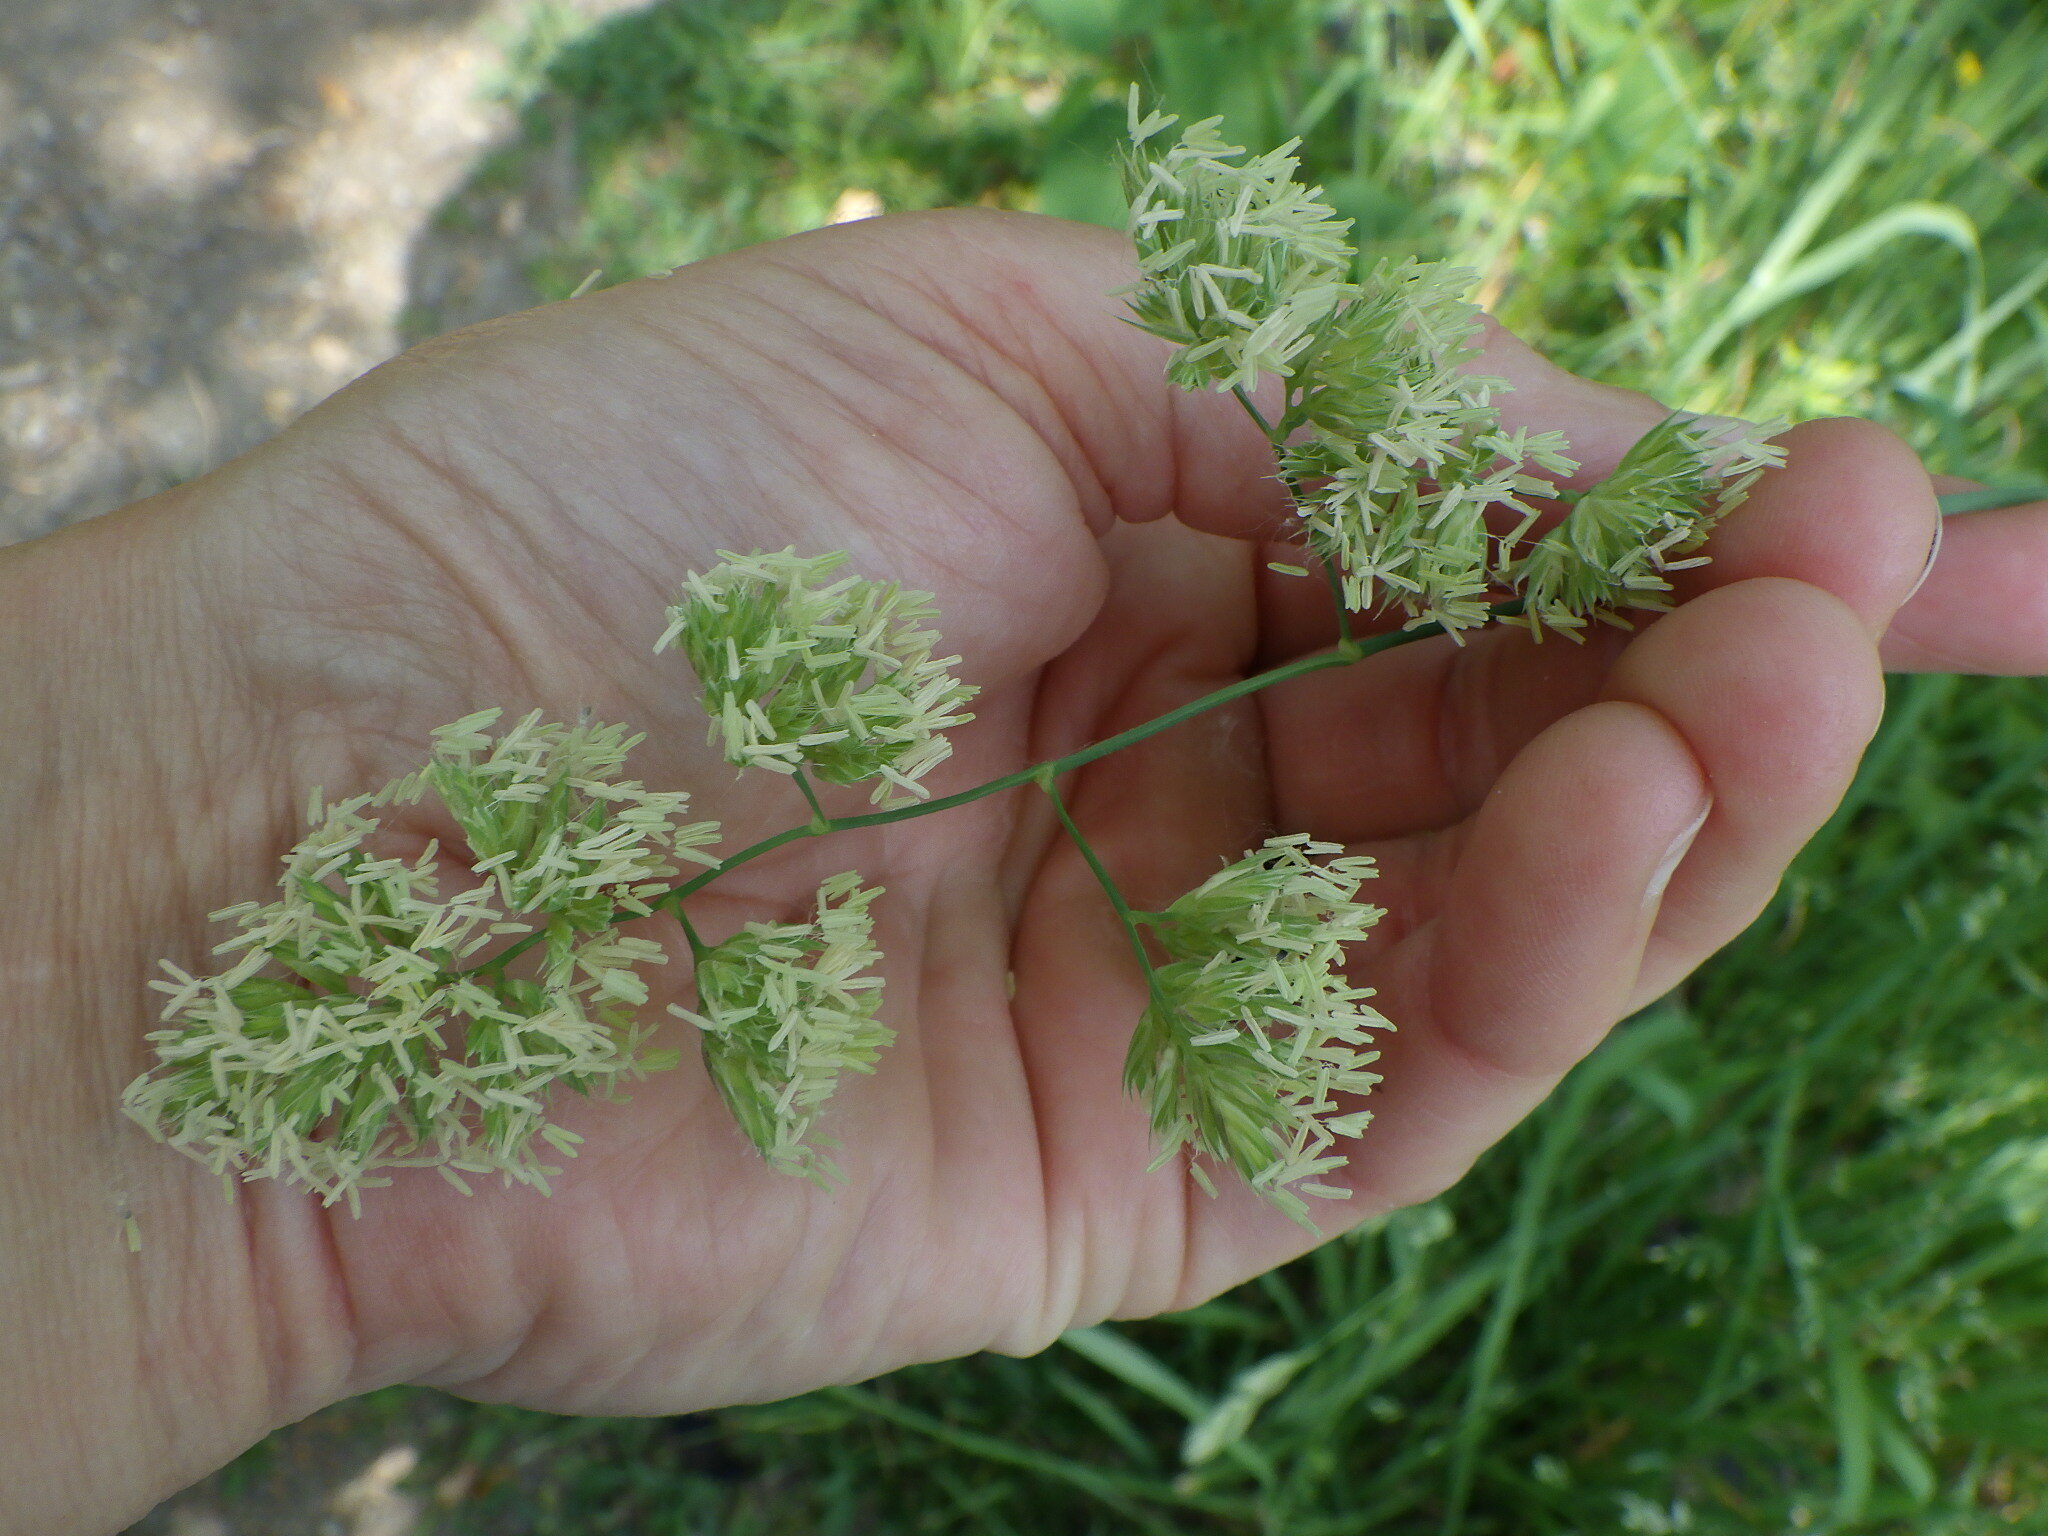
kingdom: Plantae
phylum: Tracheophyta
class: Liliopsida
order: Poales
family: Poaceae
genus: Dactylis
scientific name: Dactylis glomerata
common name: Orchardgrass
